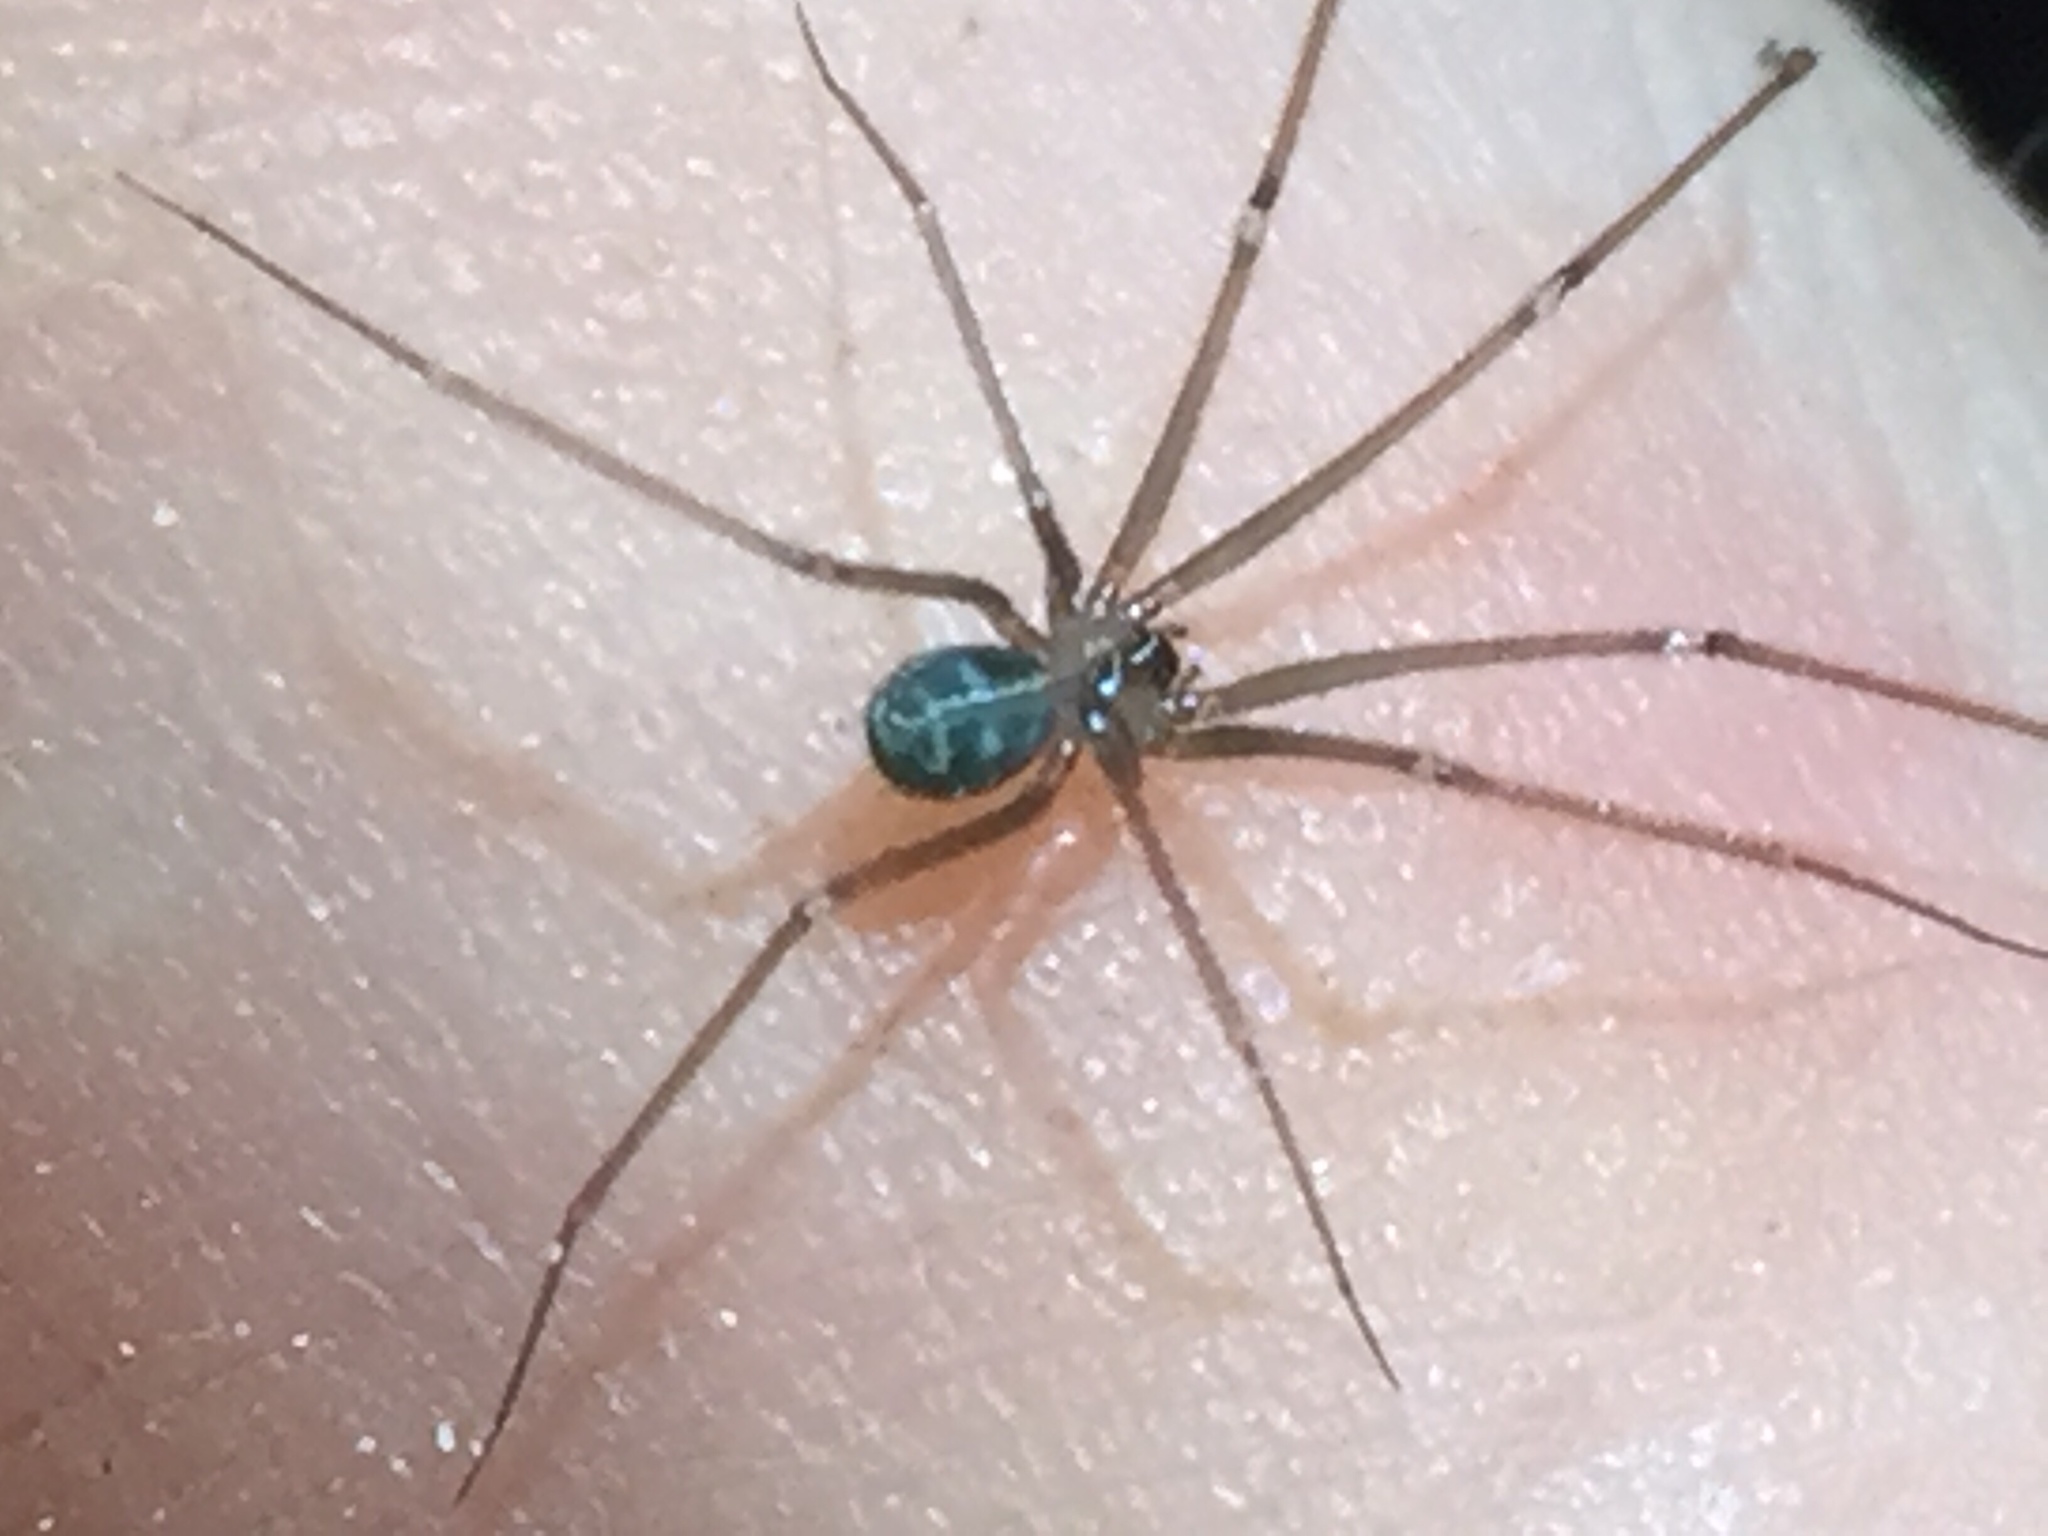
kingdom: Animalia
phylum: Arthropoda
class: Arachnida
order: Araneae
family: Pholcidae
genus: Psilochorus
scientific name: Psilochorus simoni
